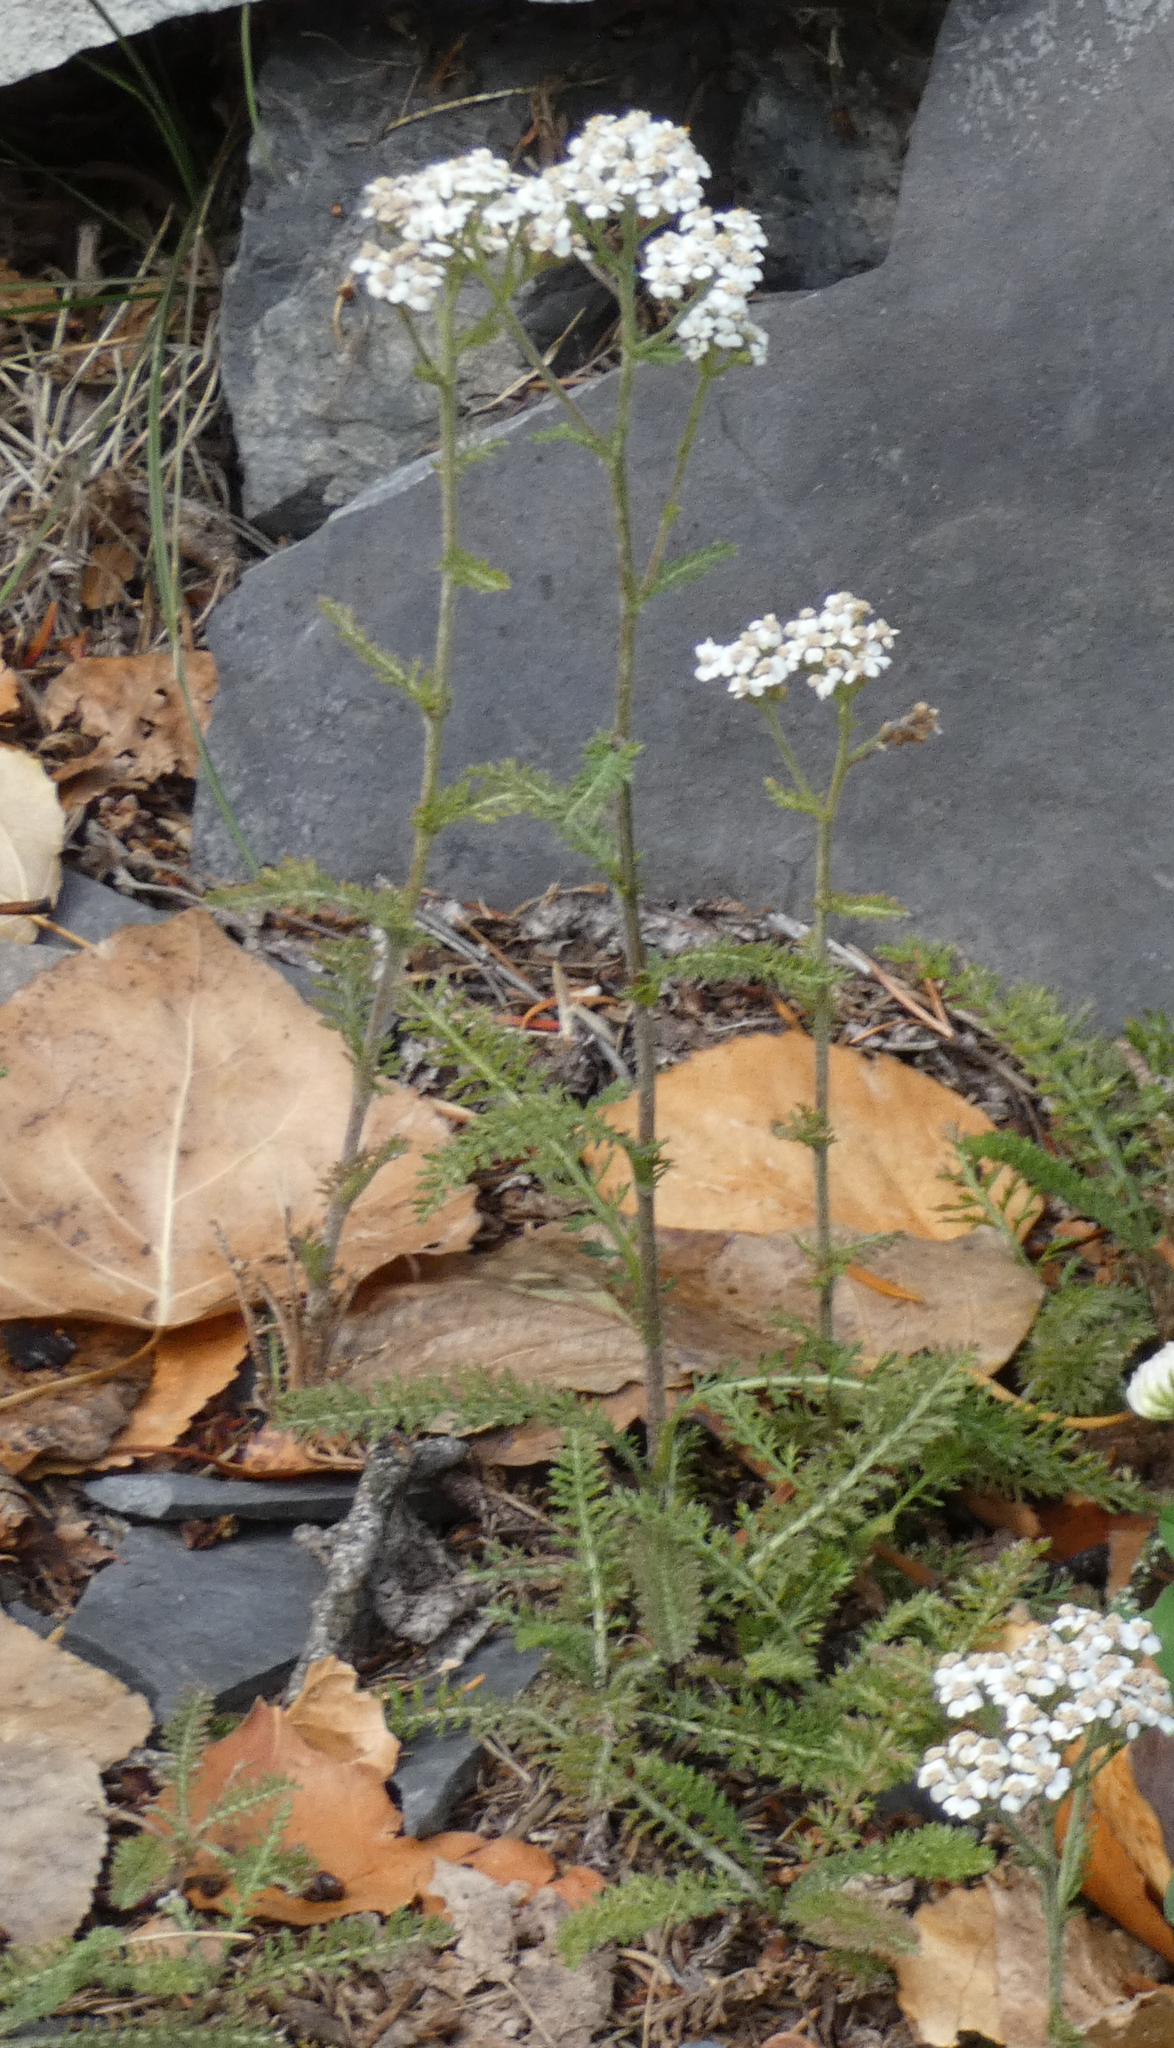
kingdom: Plantae
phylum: Tracheophyta
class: Magnoliopsida
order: Asterales
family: Asteraceae
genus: Achillea
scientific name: Achillea millefolium
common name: Yarrow
